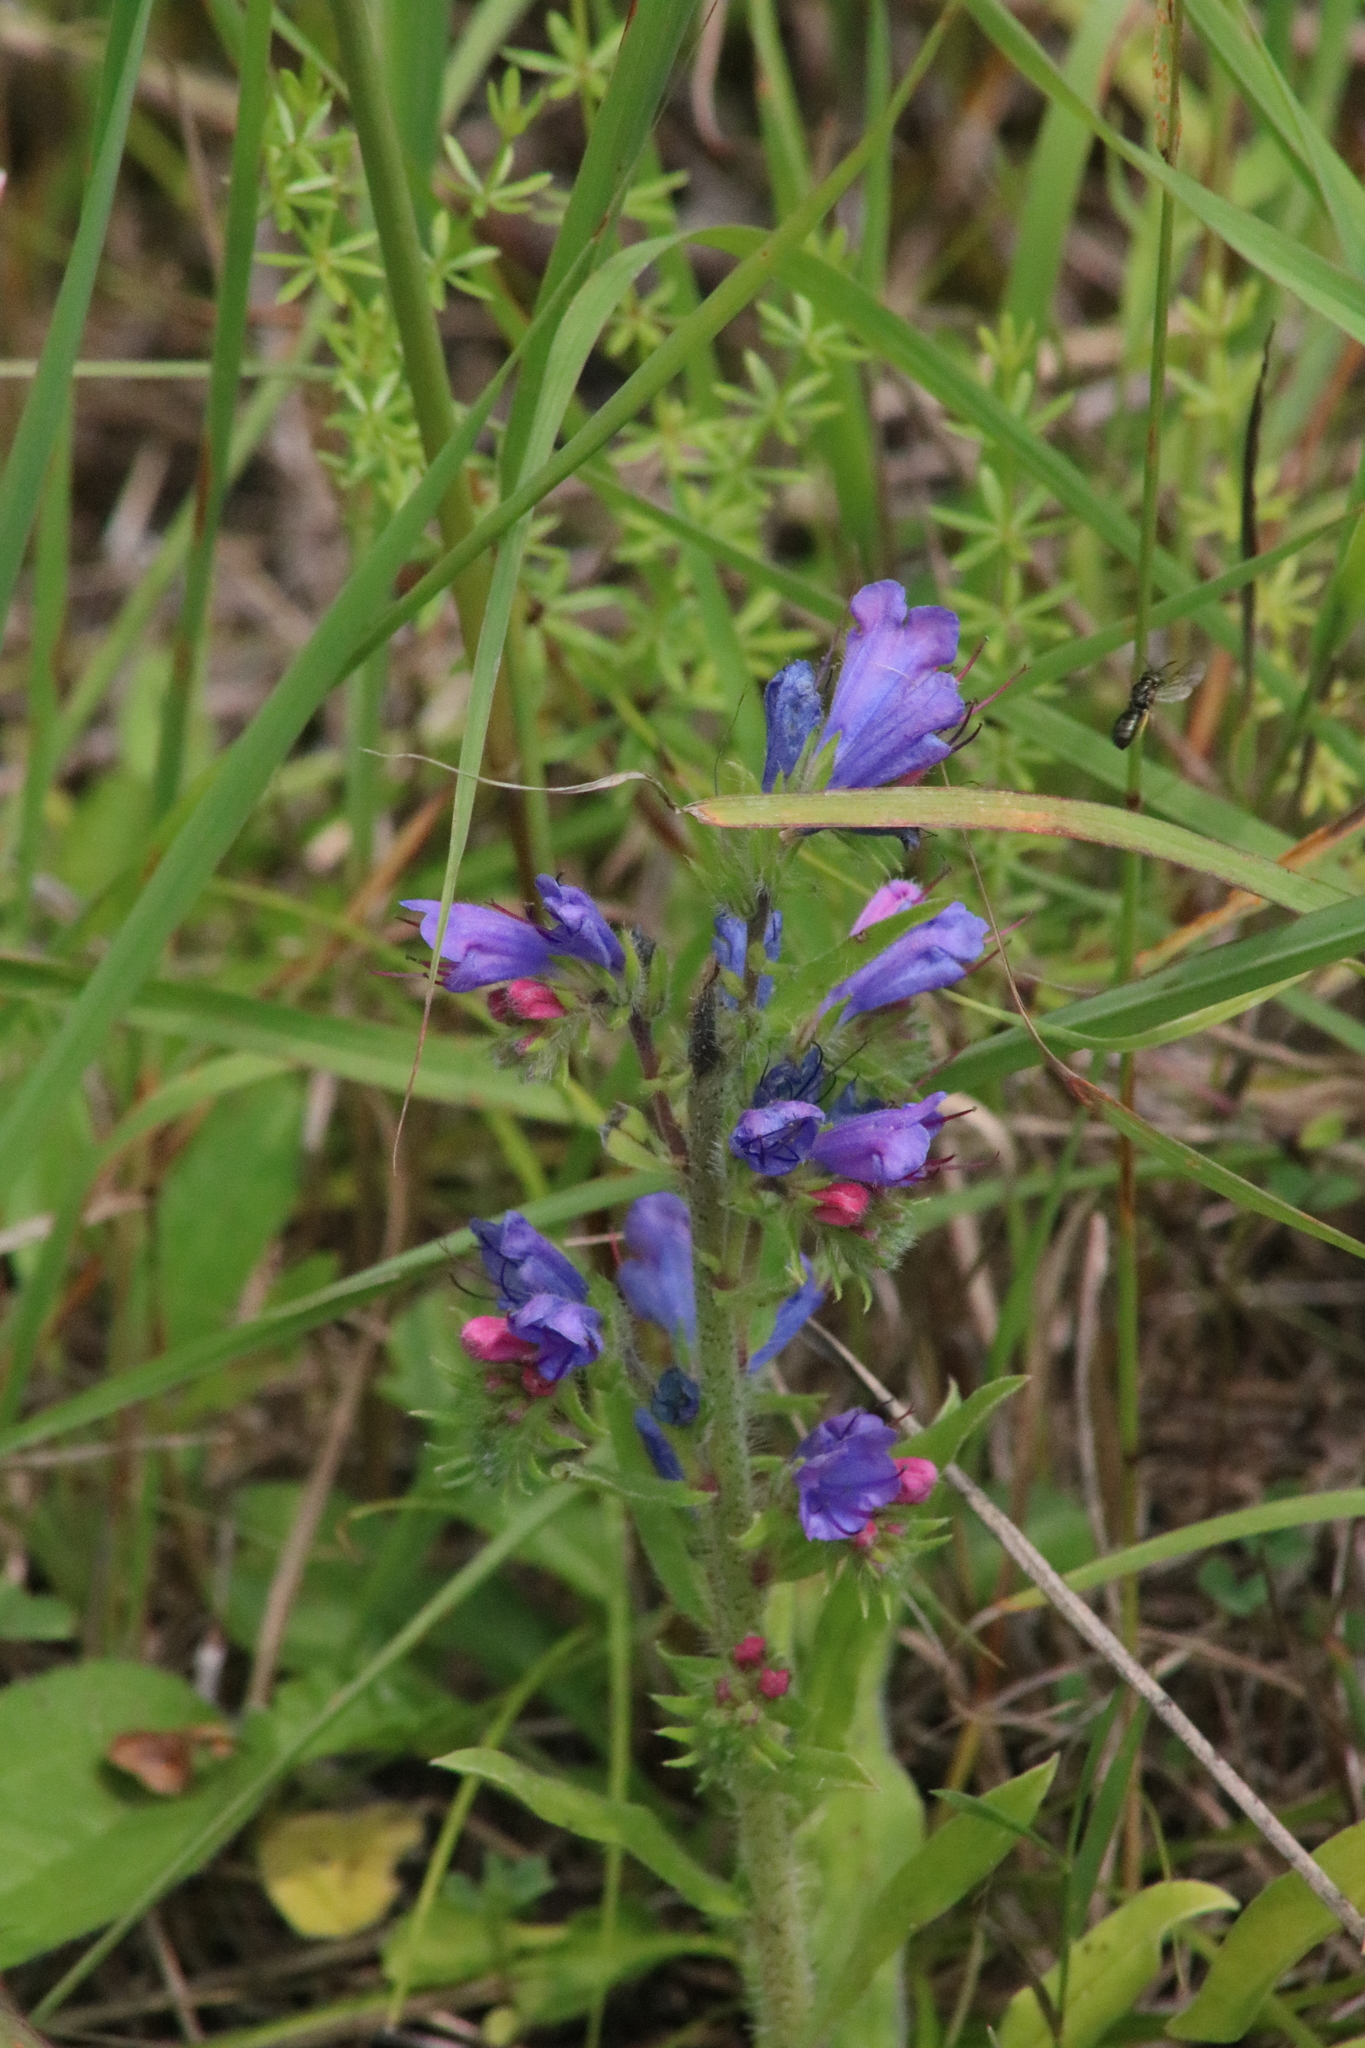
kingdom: Plantae
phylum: Tracheophyta
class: Magnoliopsida
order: Boraginales
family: Boraginaceae
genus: Echium
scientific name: Echium vulgare
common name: Common viper's bugloss
